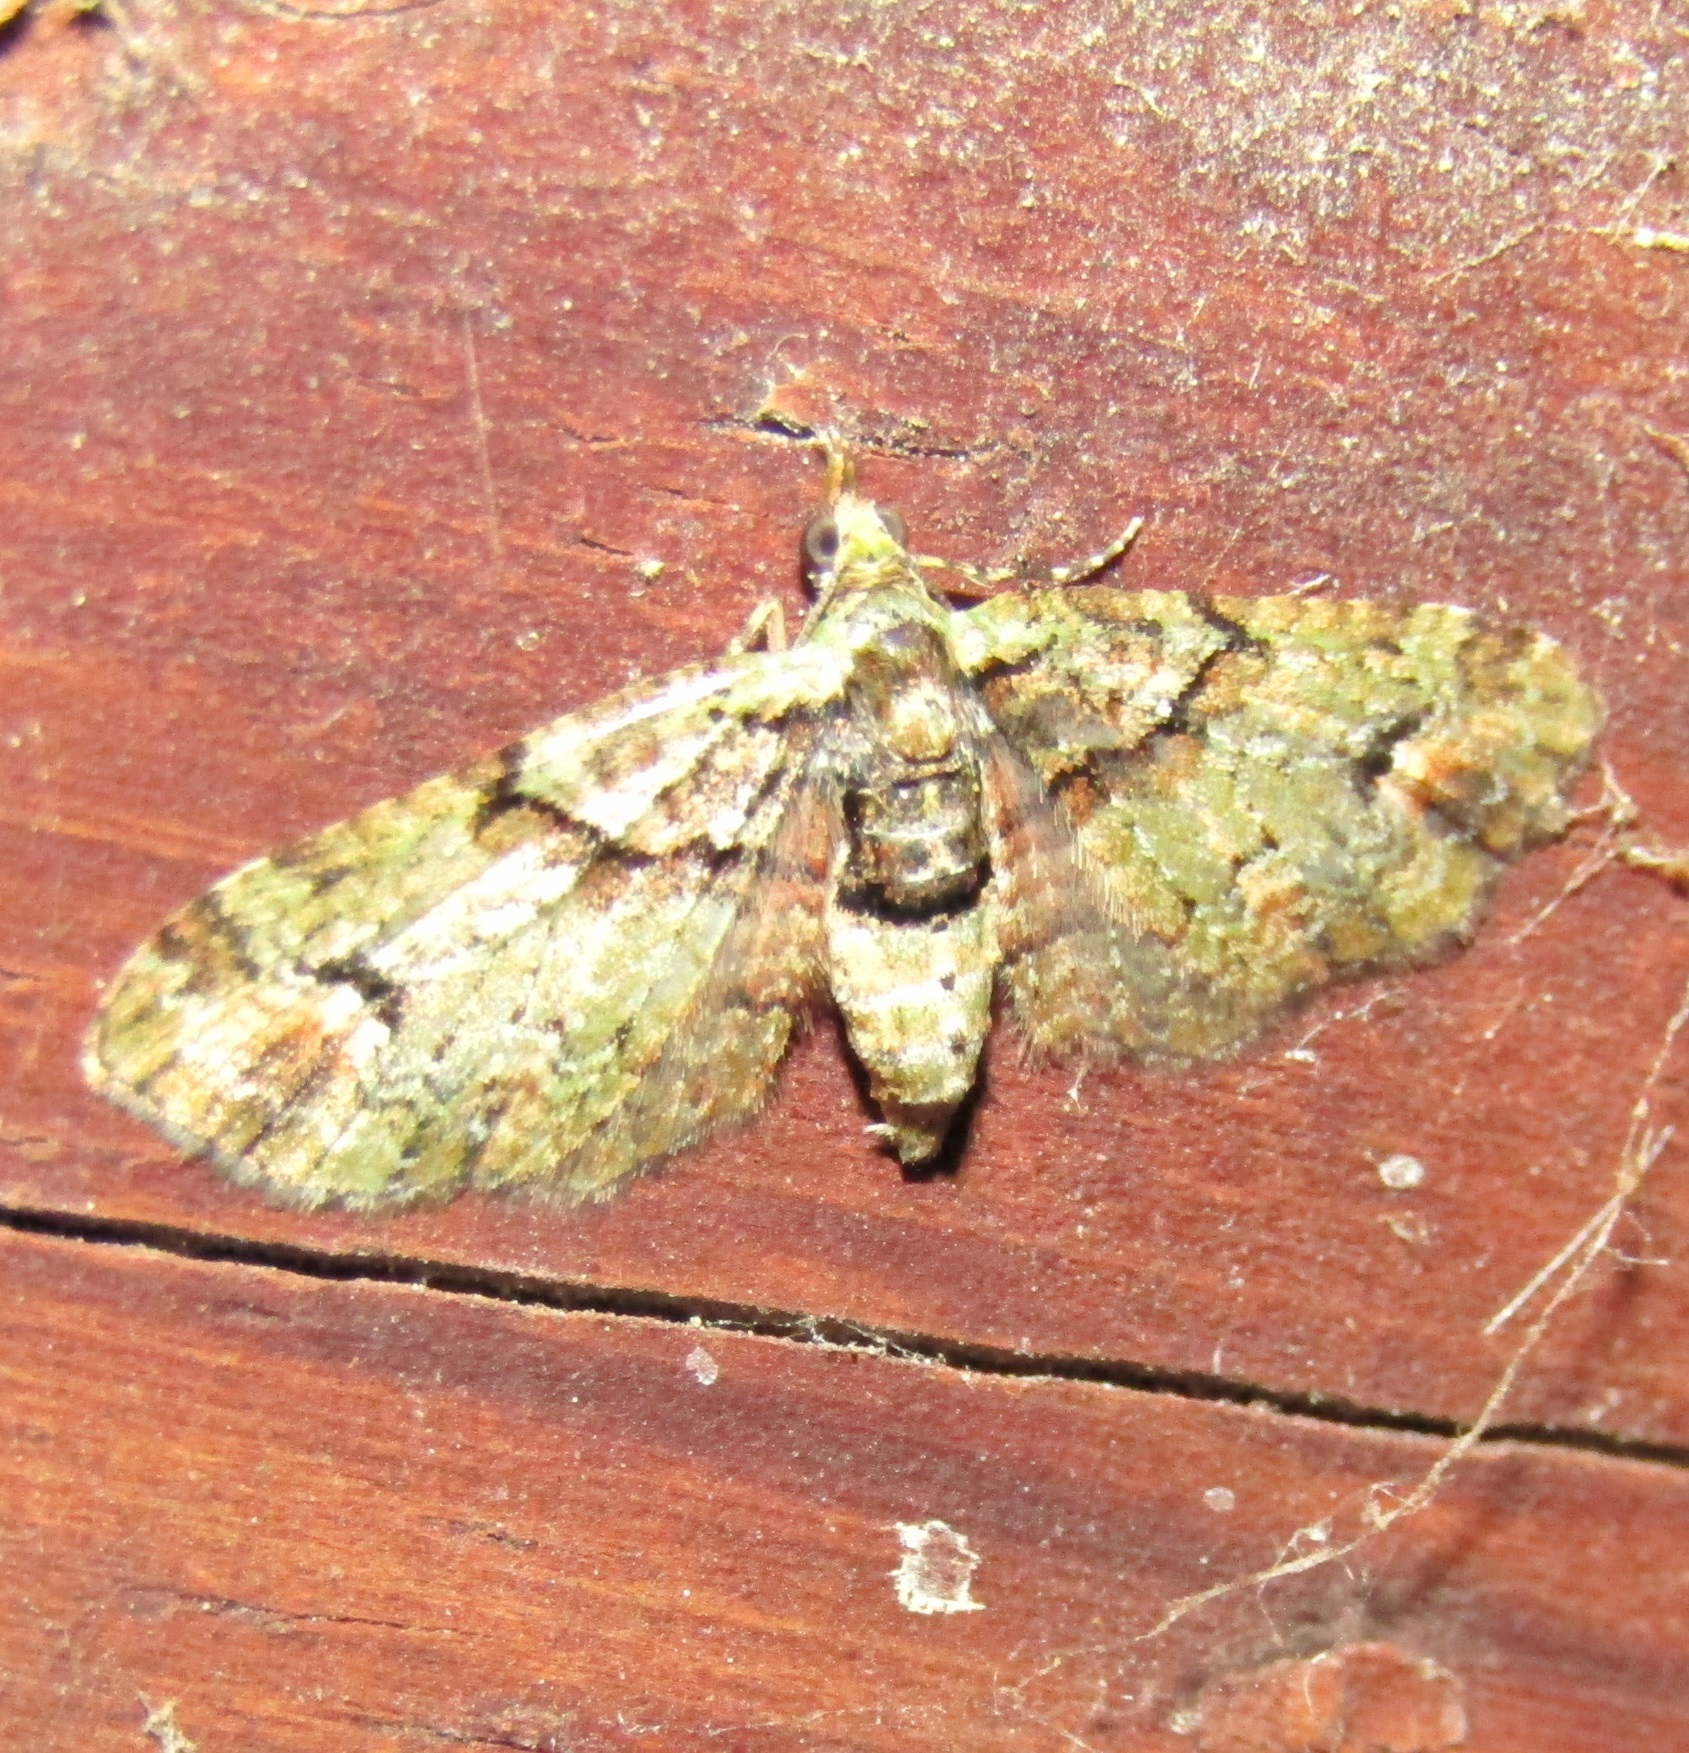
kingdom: Animalia
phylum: Arthropoda
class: Insecta
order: Lepidoptera
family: Geometridae
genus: Idaea
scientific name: Idaea mutanda
